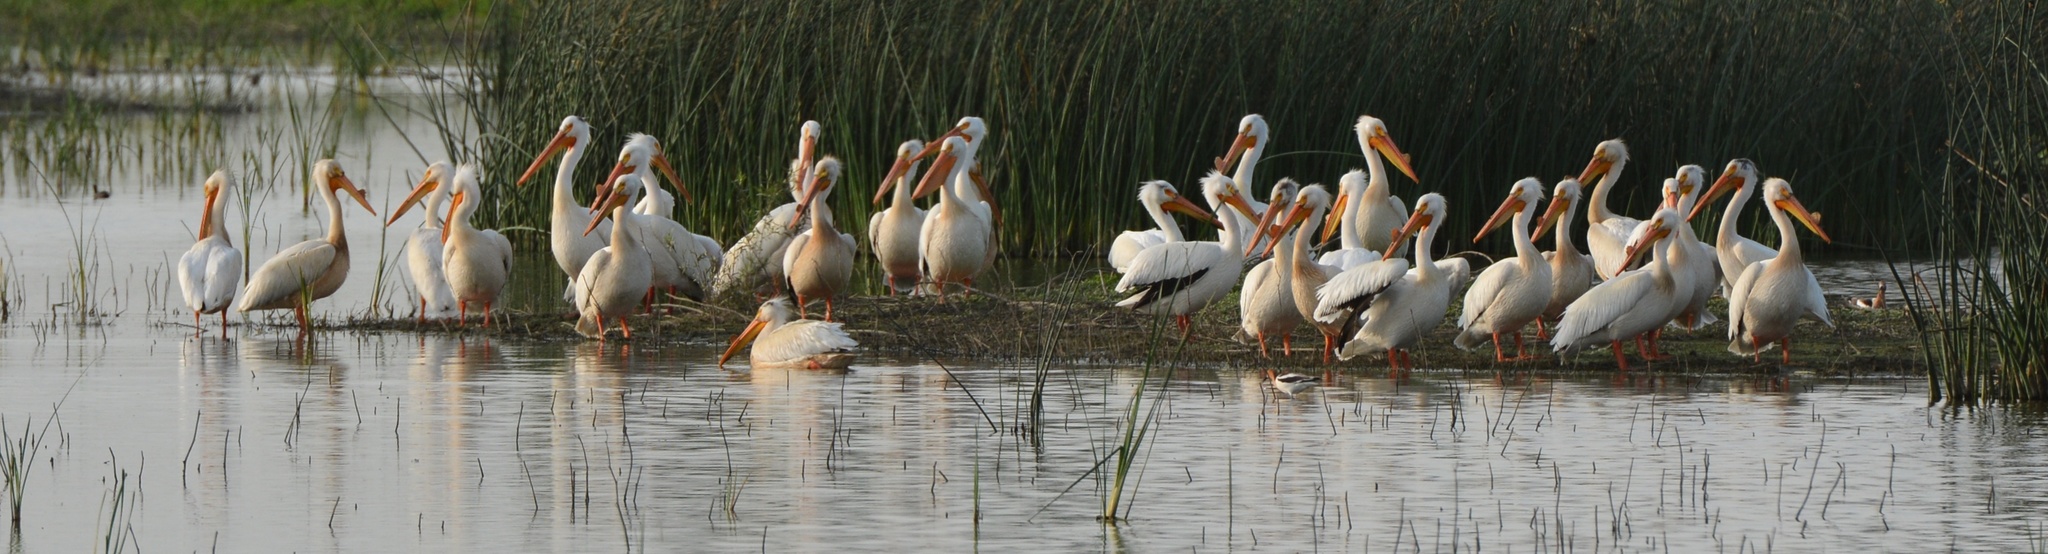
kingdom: Animalia
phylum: Chordata
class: Aves
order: Pelecaniformes
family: Pelecanidae
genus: Pelecanus
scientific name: Pelecanus erythrorhynchos
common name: American white pelican
